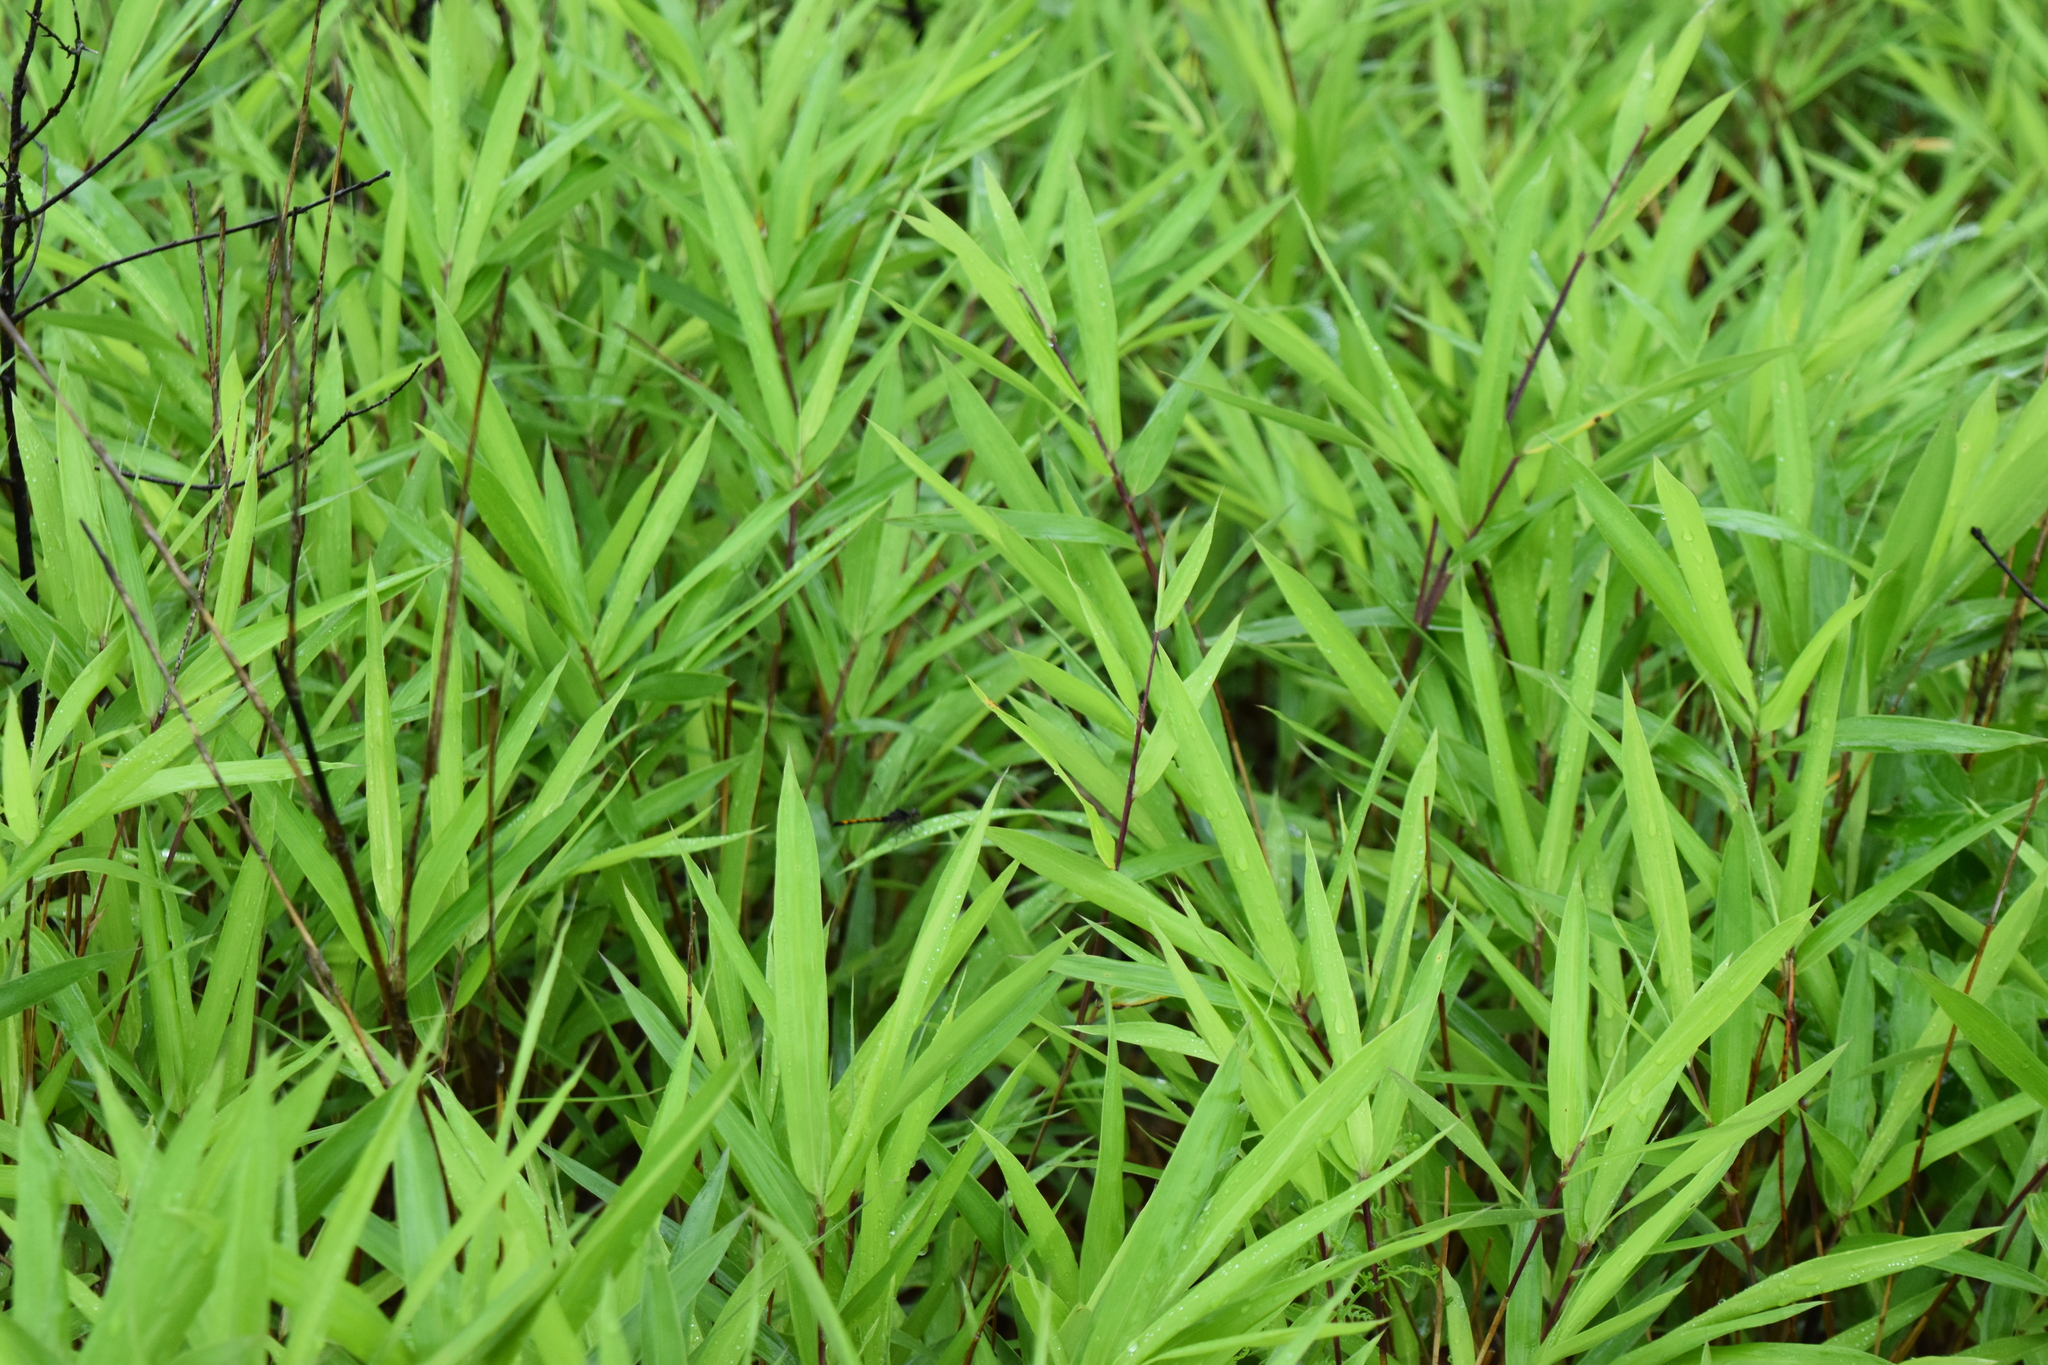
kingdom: Plantae
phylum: Tracheophyta
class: Liliopsida
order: Poales
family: Poaceae
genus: Phragmites
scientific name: Phragmites australis
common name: Common reed
